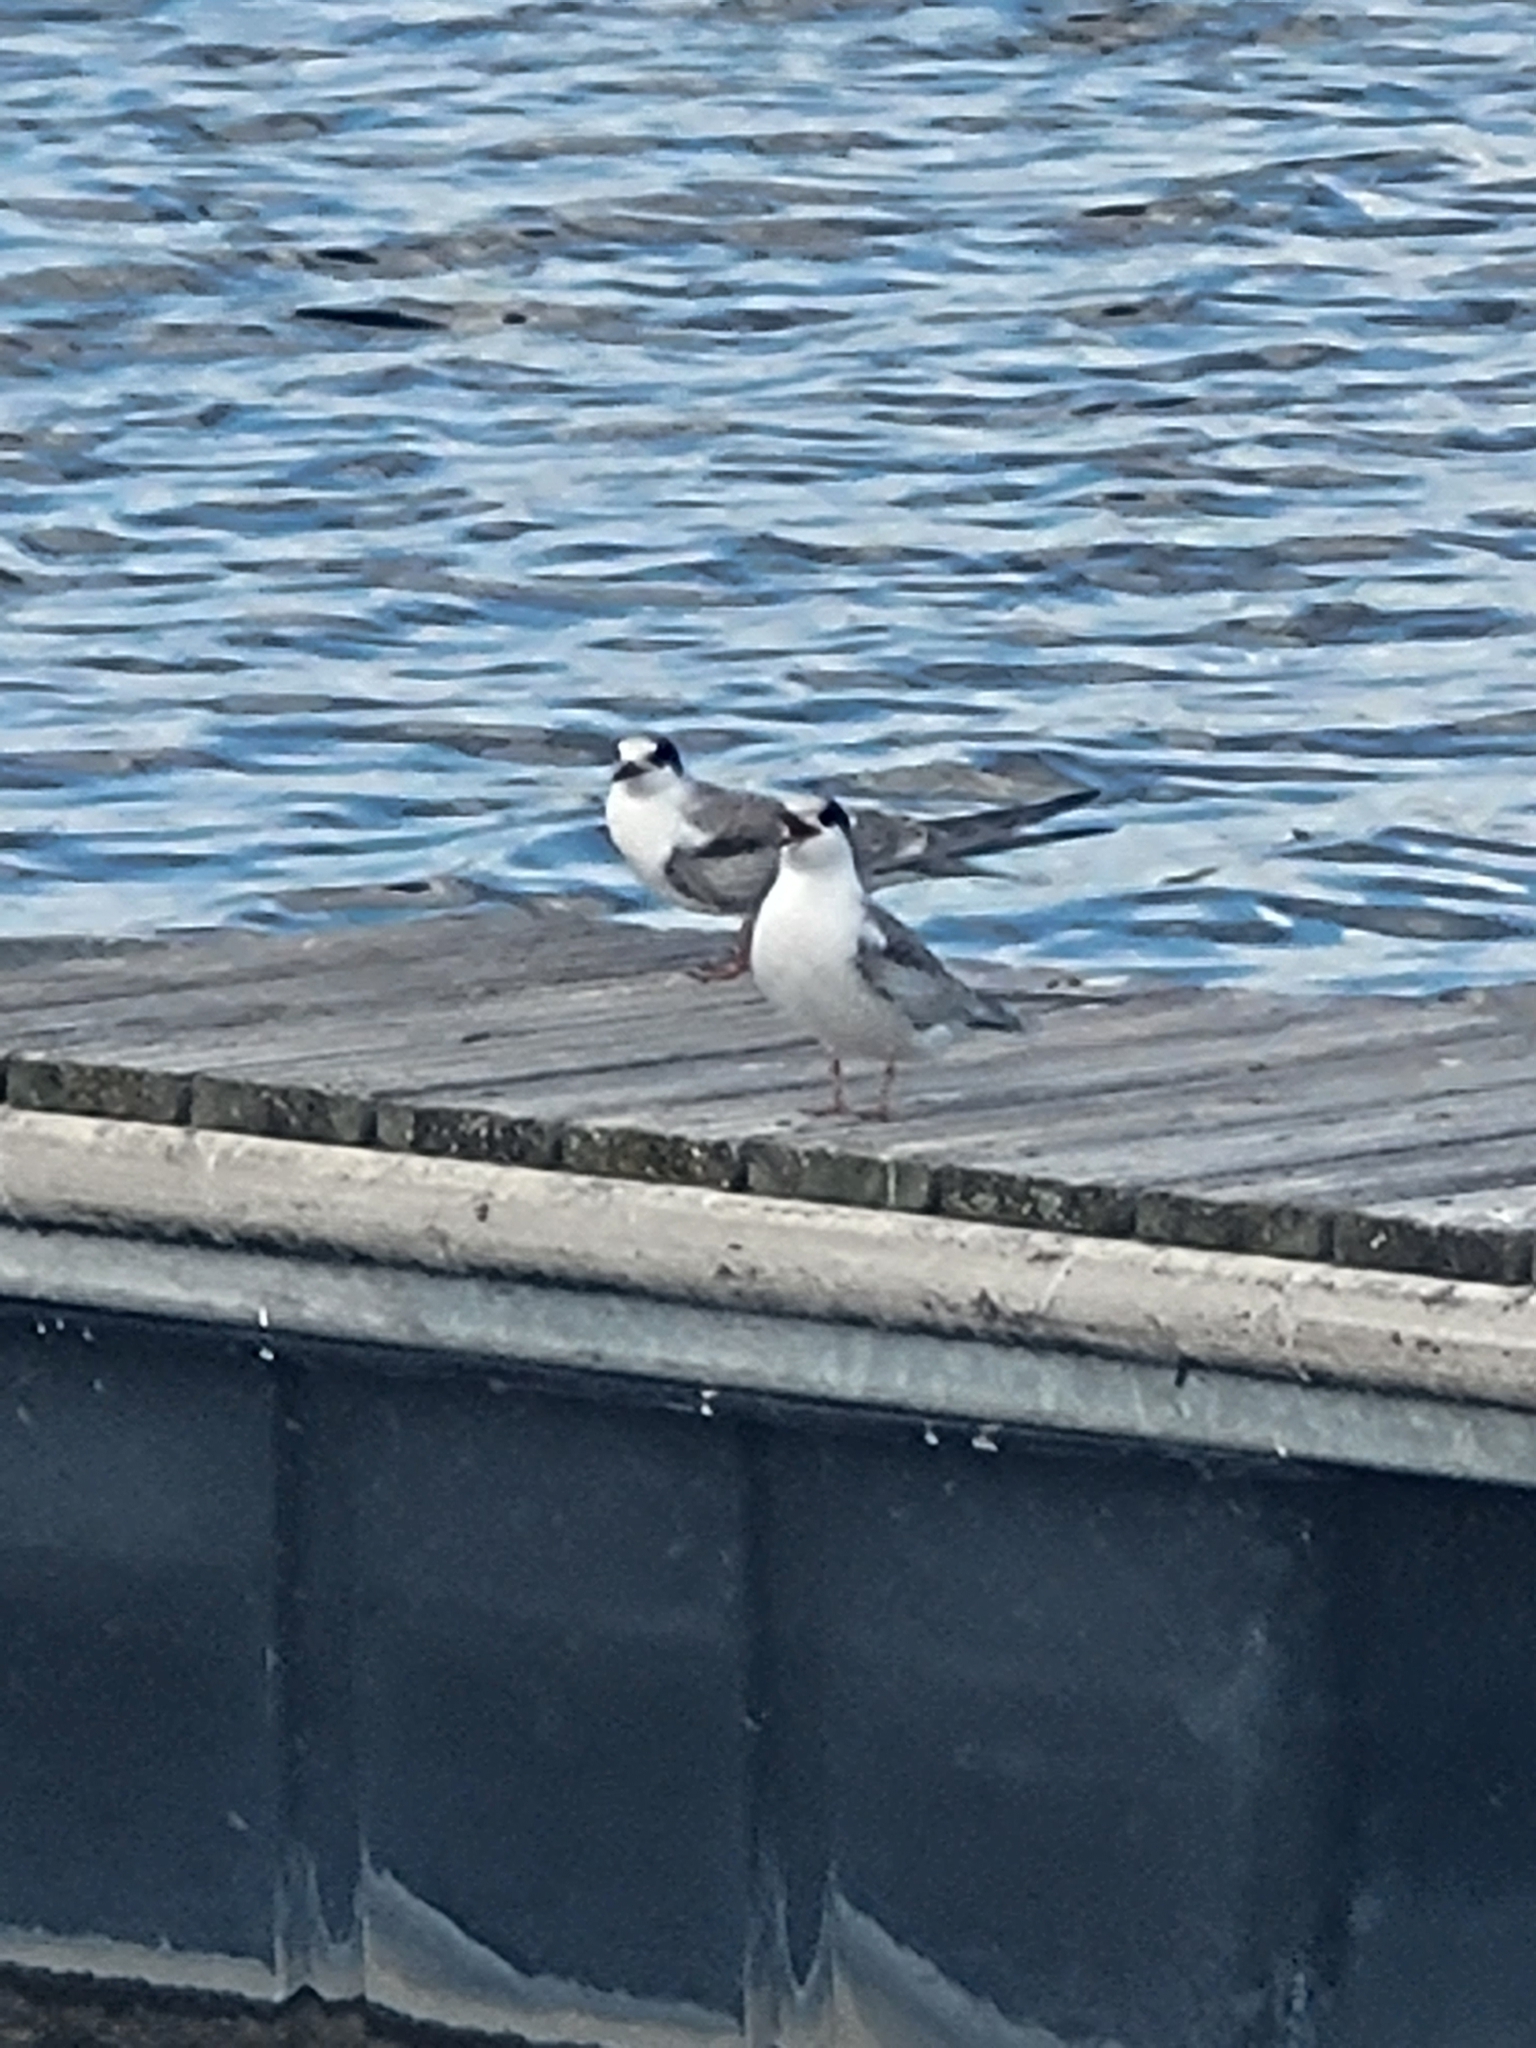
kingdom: Animalia
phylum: Chordata
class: Aves
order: Charadriiformes
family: Laridae
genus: Sterna
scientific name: Sterna hirundo
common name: Common tern
